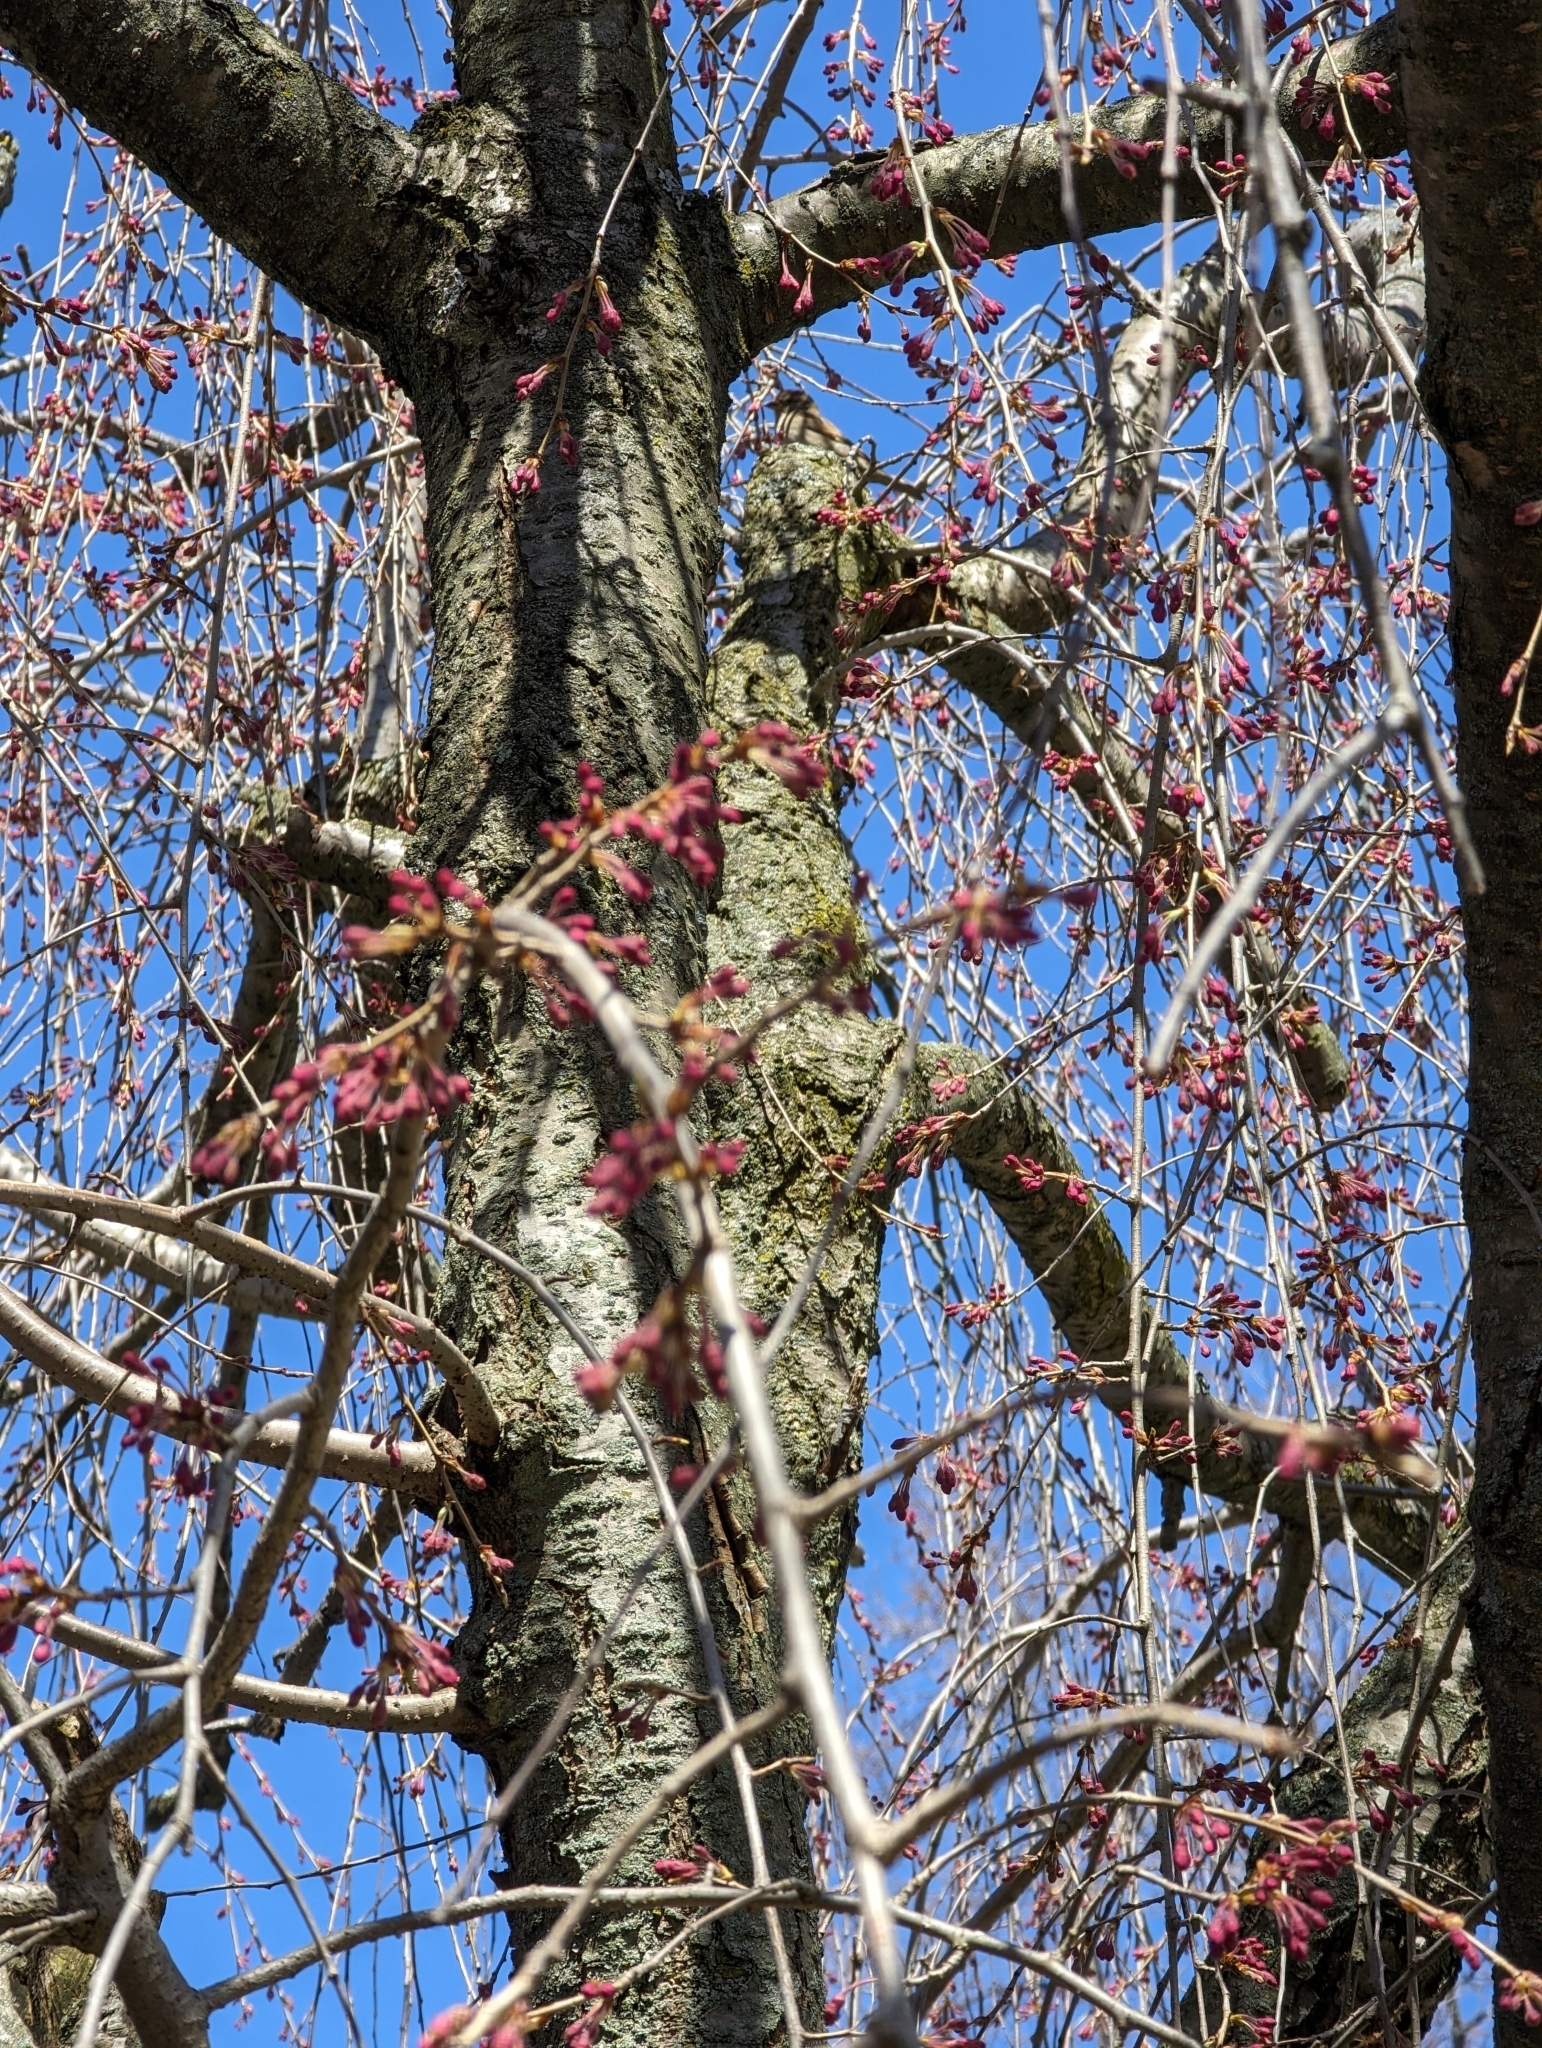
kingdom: Animalia
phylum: Chordata
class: Aves
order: Passeriformes
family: Passeridae
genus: Passer
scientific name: Passer domesticus
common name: House sparrow
